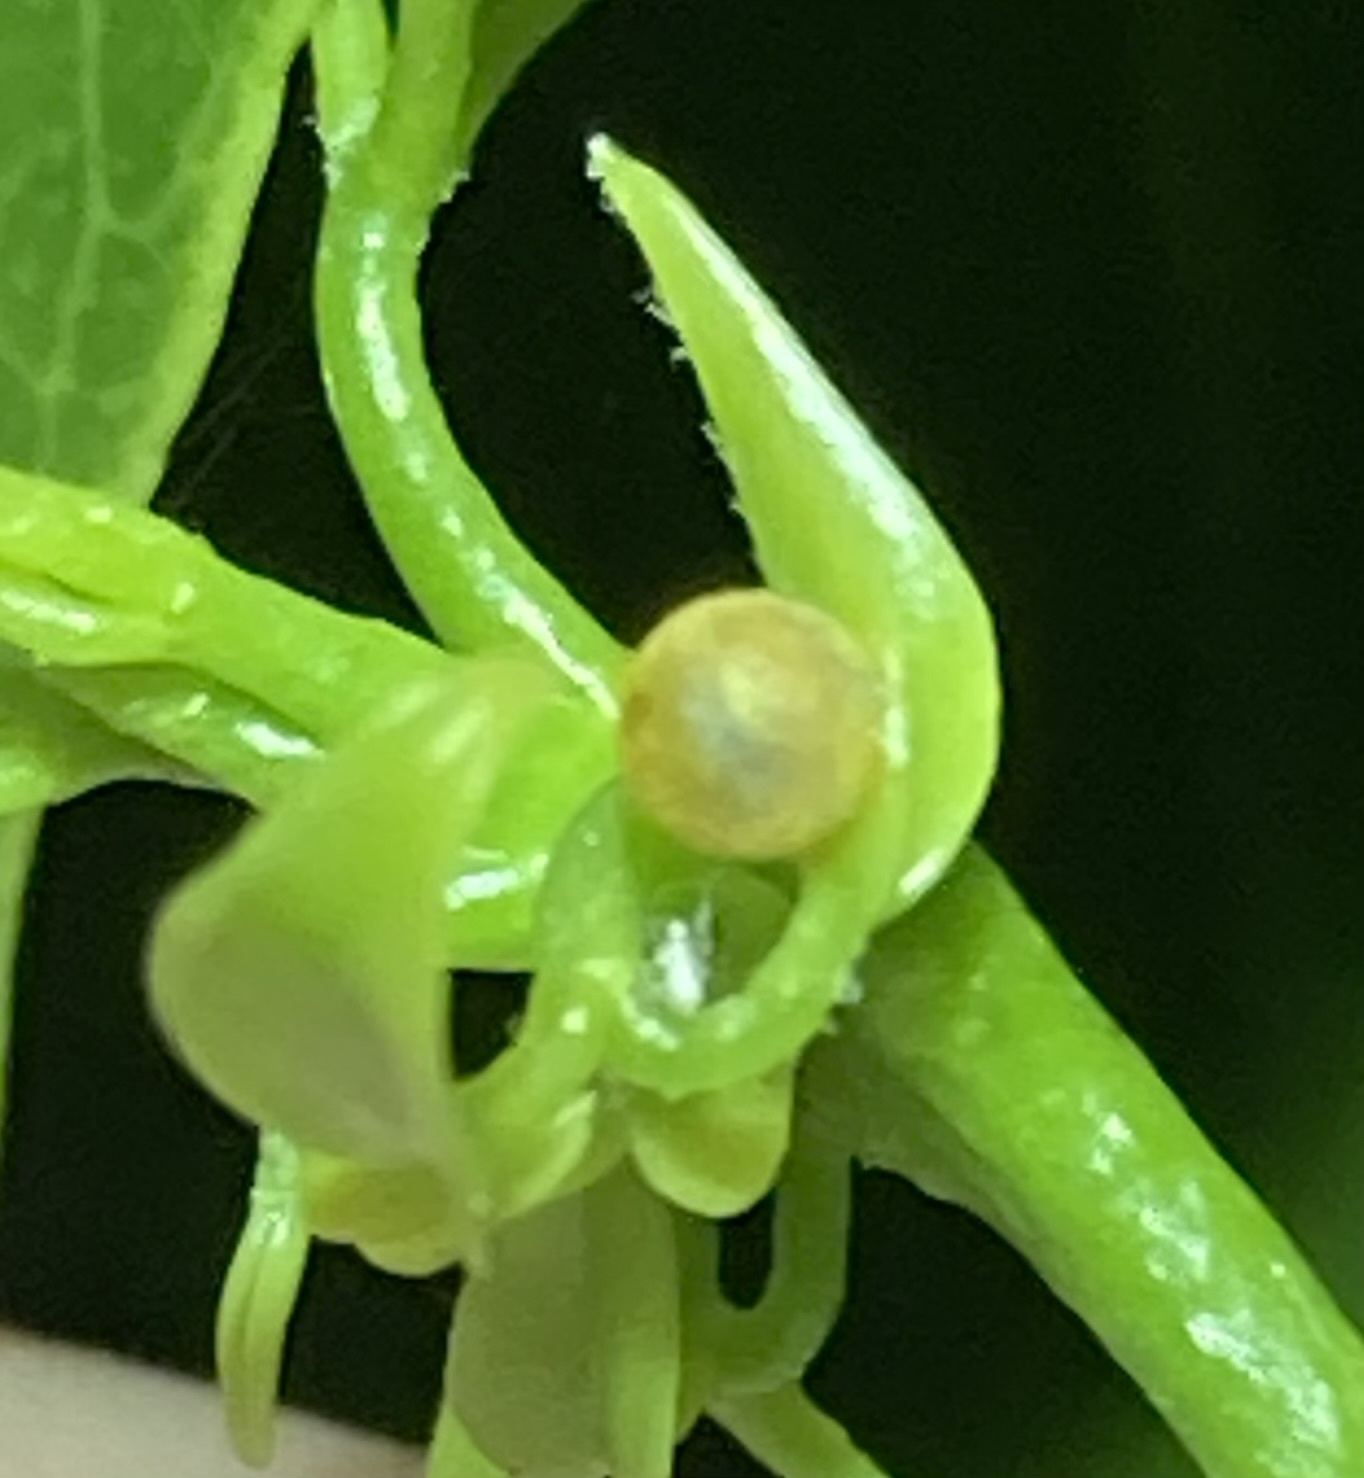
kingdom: Animalia
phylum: Arthropoda
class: Insecta
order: Lepidoptera
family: Papilionidae
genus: Papilio
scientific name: Papilio cresphontes
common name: Giant swallowtail
